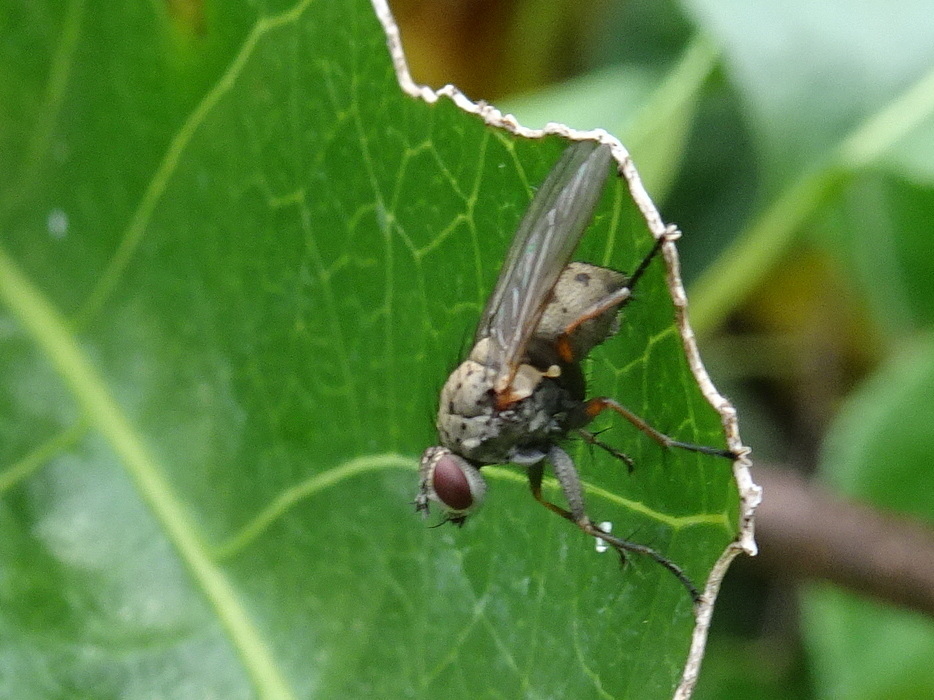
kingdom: Animalia
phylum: Arthropoda
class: Insecta
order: Diptera
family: Muscidae
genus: Coenosia
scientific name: Coenosia tigrina
